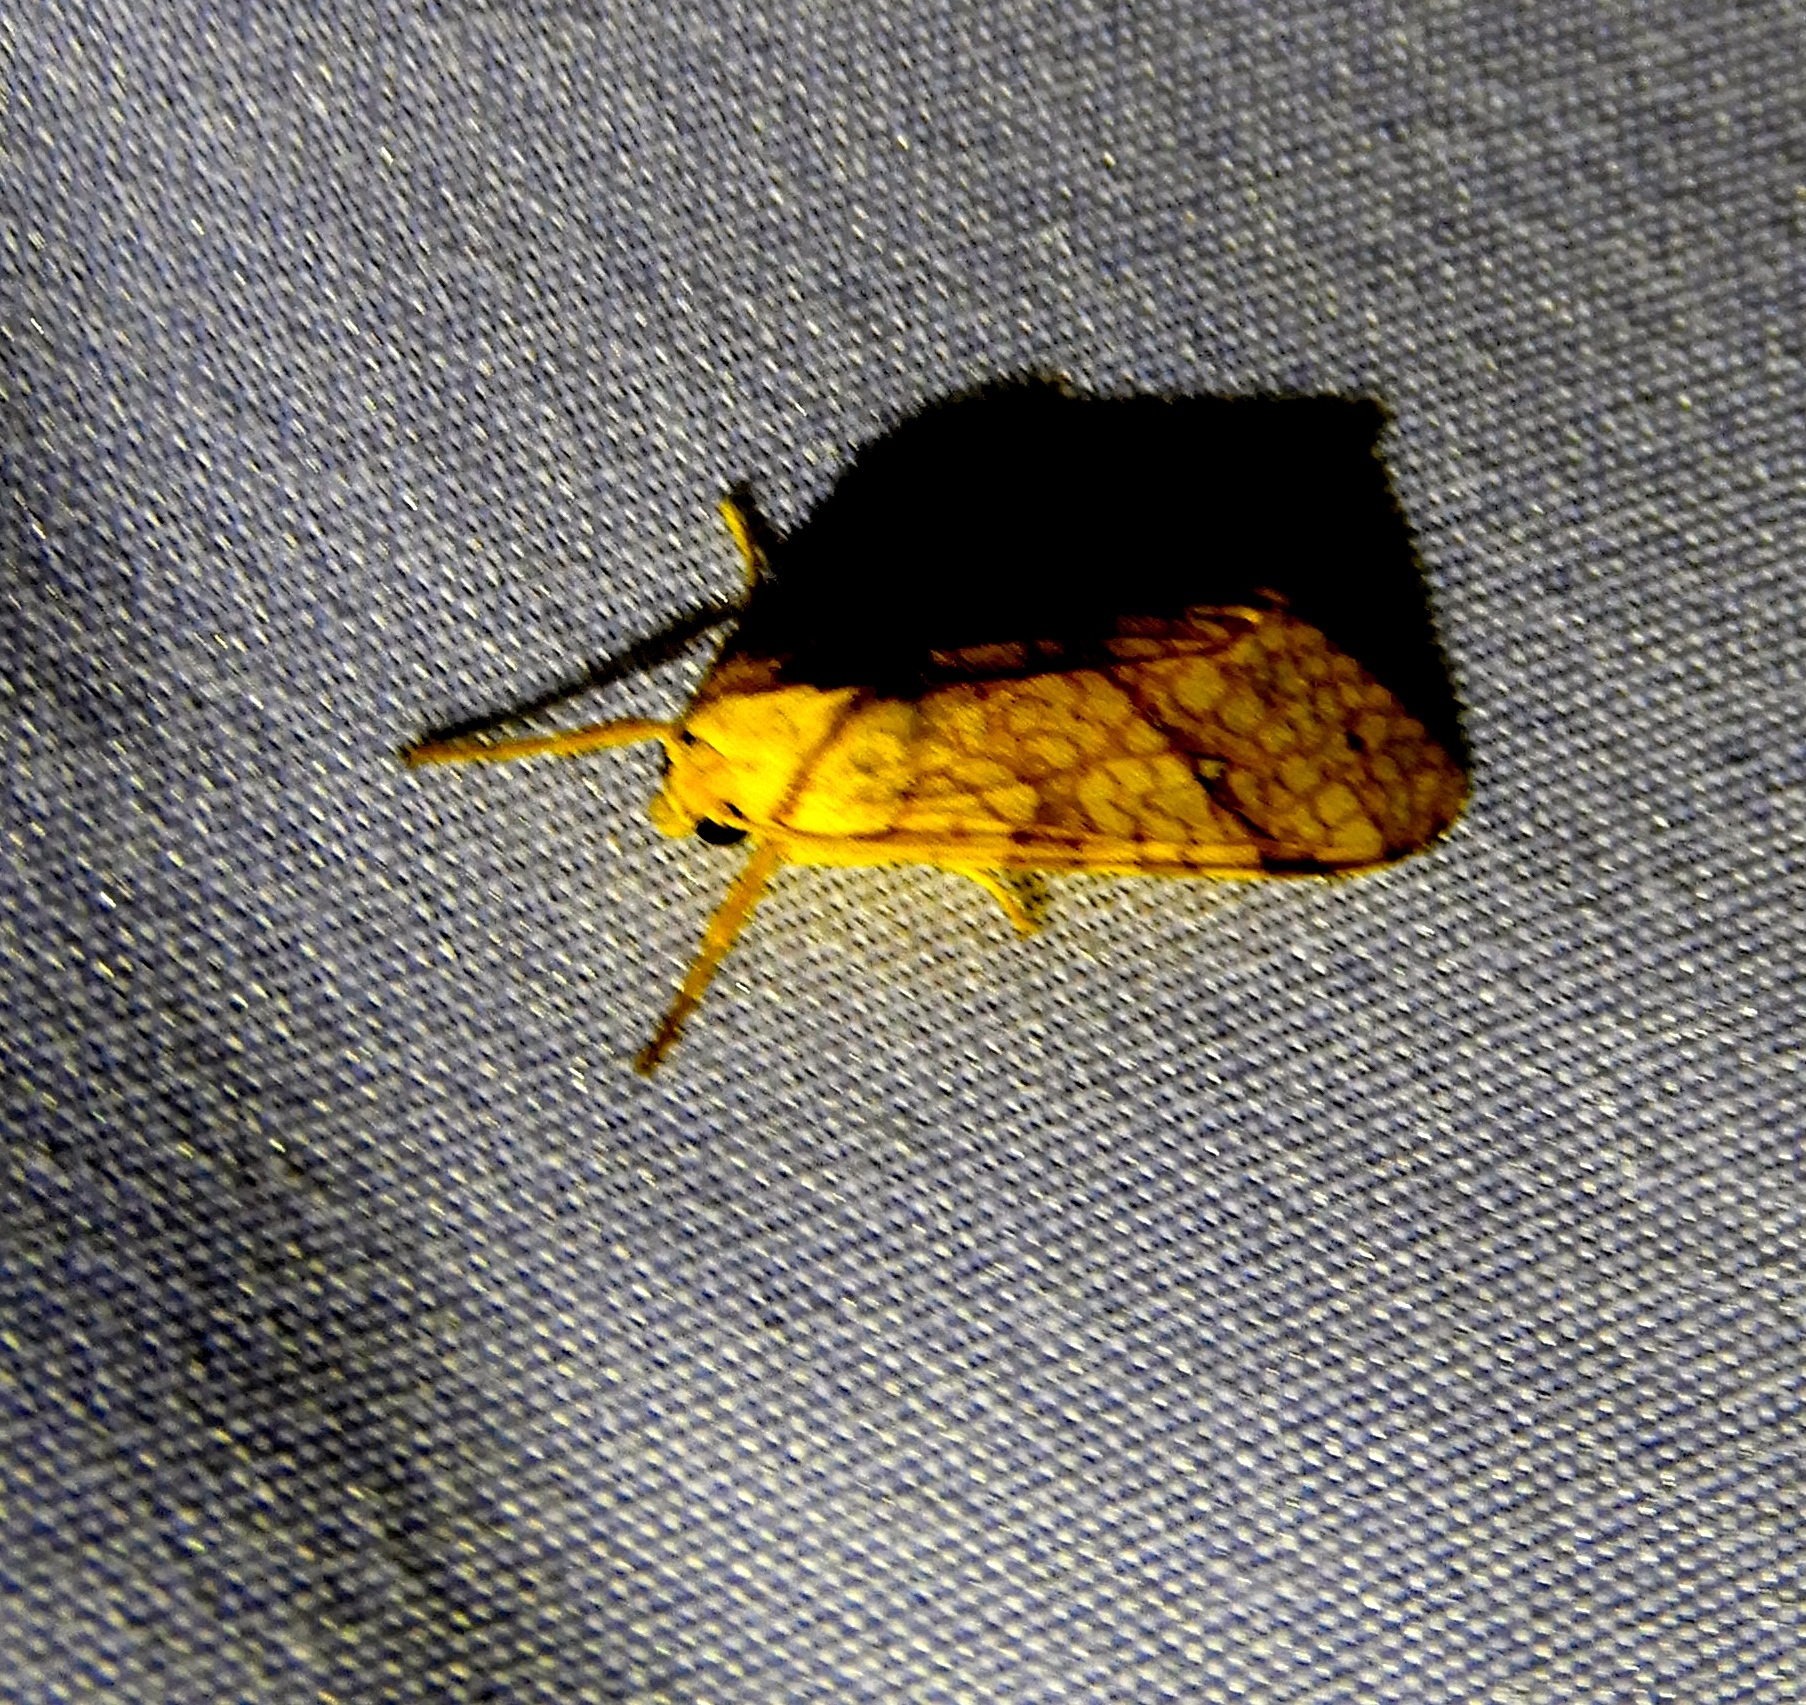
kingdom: Animalia
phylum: Arthropoda
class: Insecta
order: Lepidoptera
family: Erebidae
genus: Lophocampa
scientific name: Lophocampa
